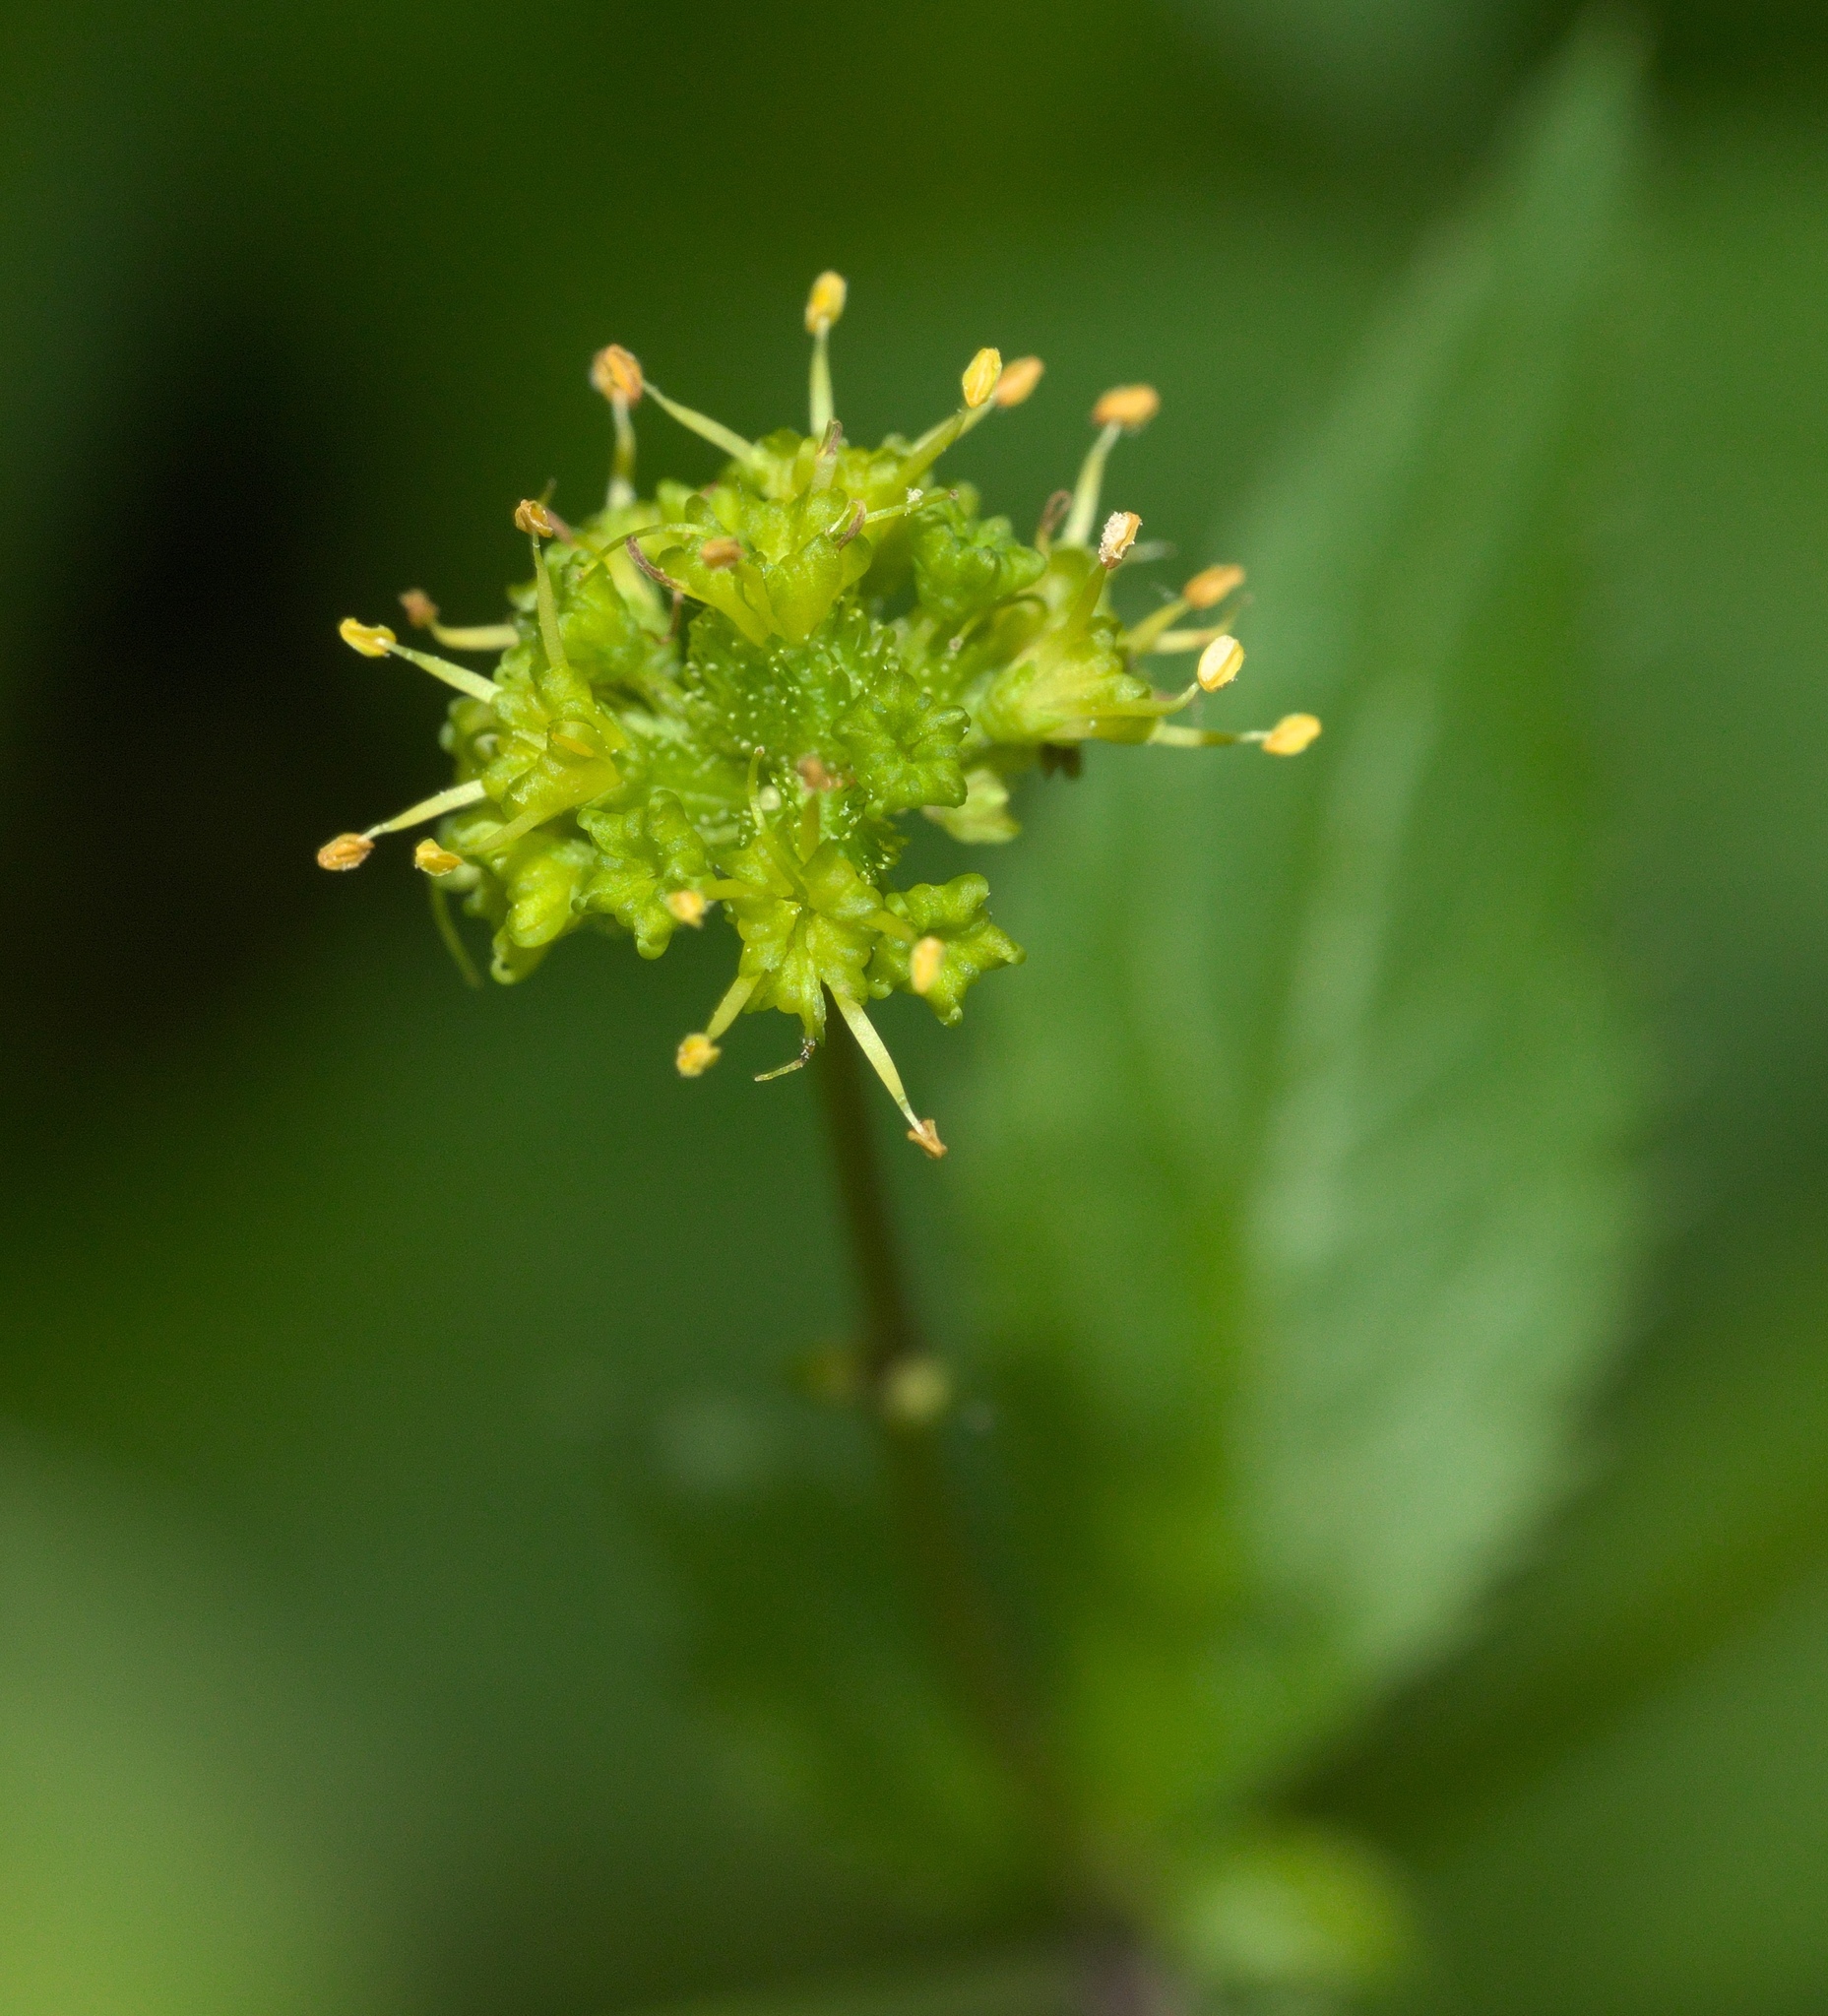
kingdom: Plantae
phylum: Tracheophyta
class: Magnoliopsida
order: Apiales
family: Apiaceae
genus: Sanicula
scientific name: Sanicula odorata
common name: Cluster sanicle
